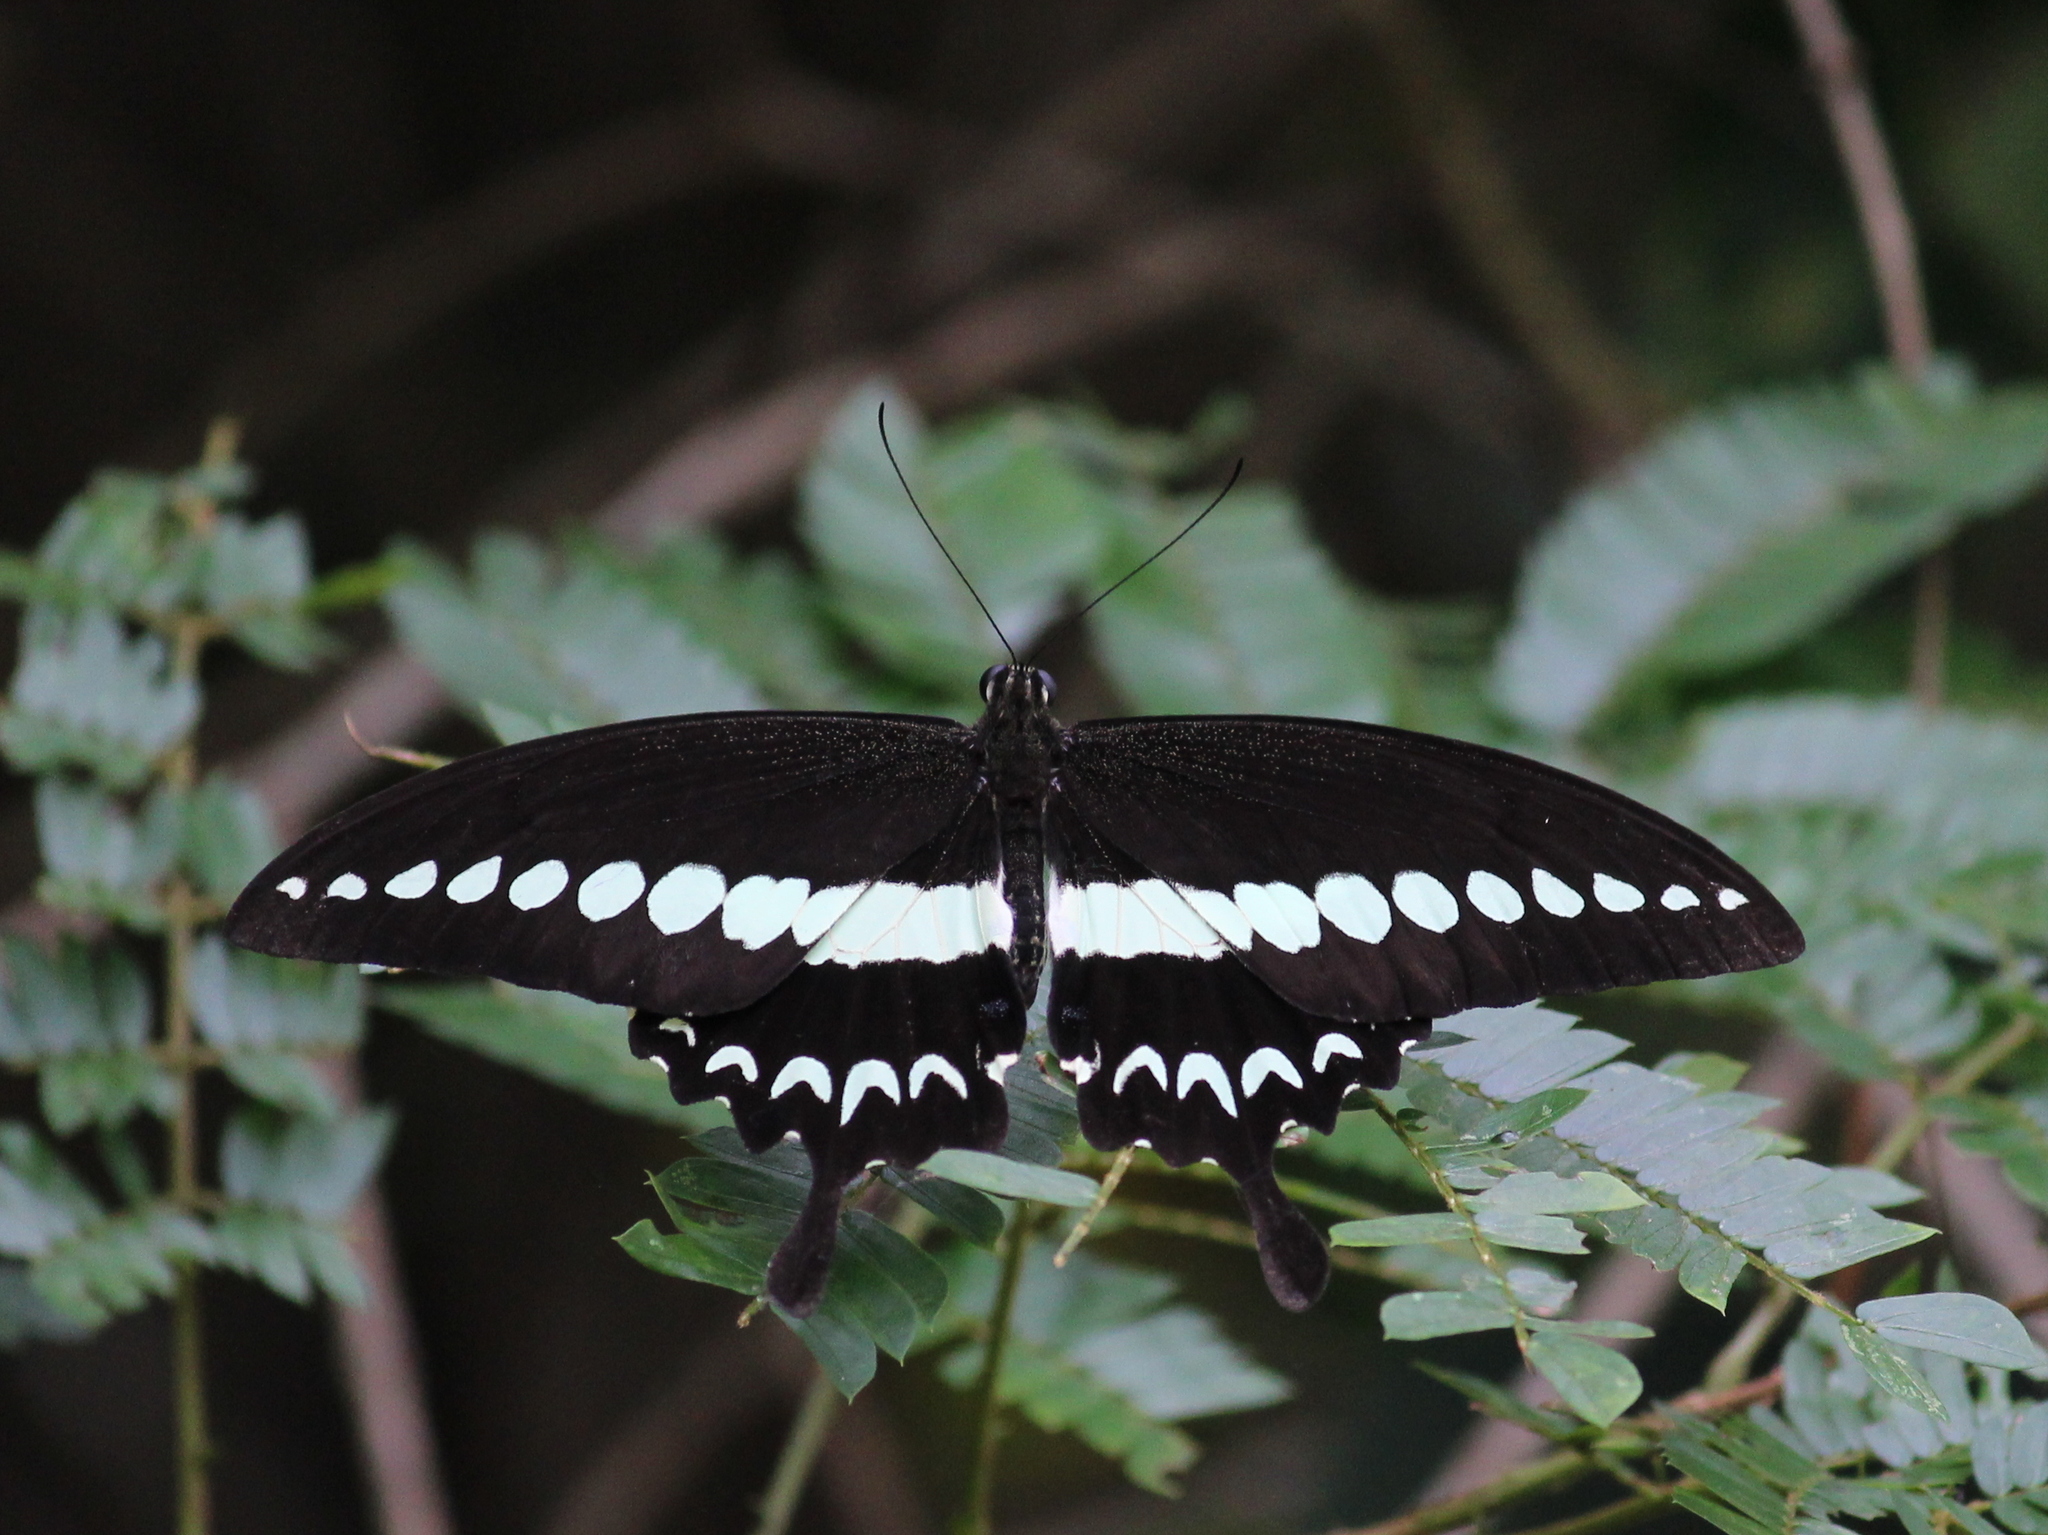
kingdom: Animalia
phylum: Arthropoda
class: Insecta
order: Lepidoptera
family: Papilionidae
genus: Papilio
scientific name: Papilio liomedon
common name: Malabar banded swallowtail
